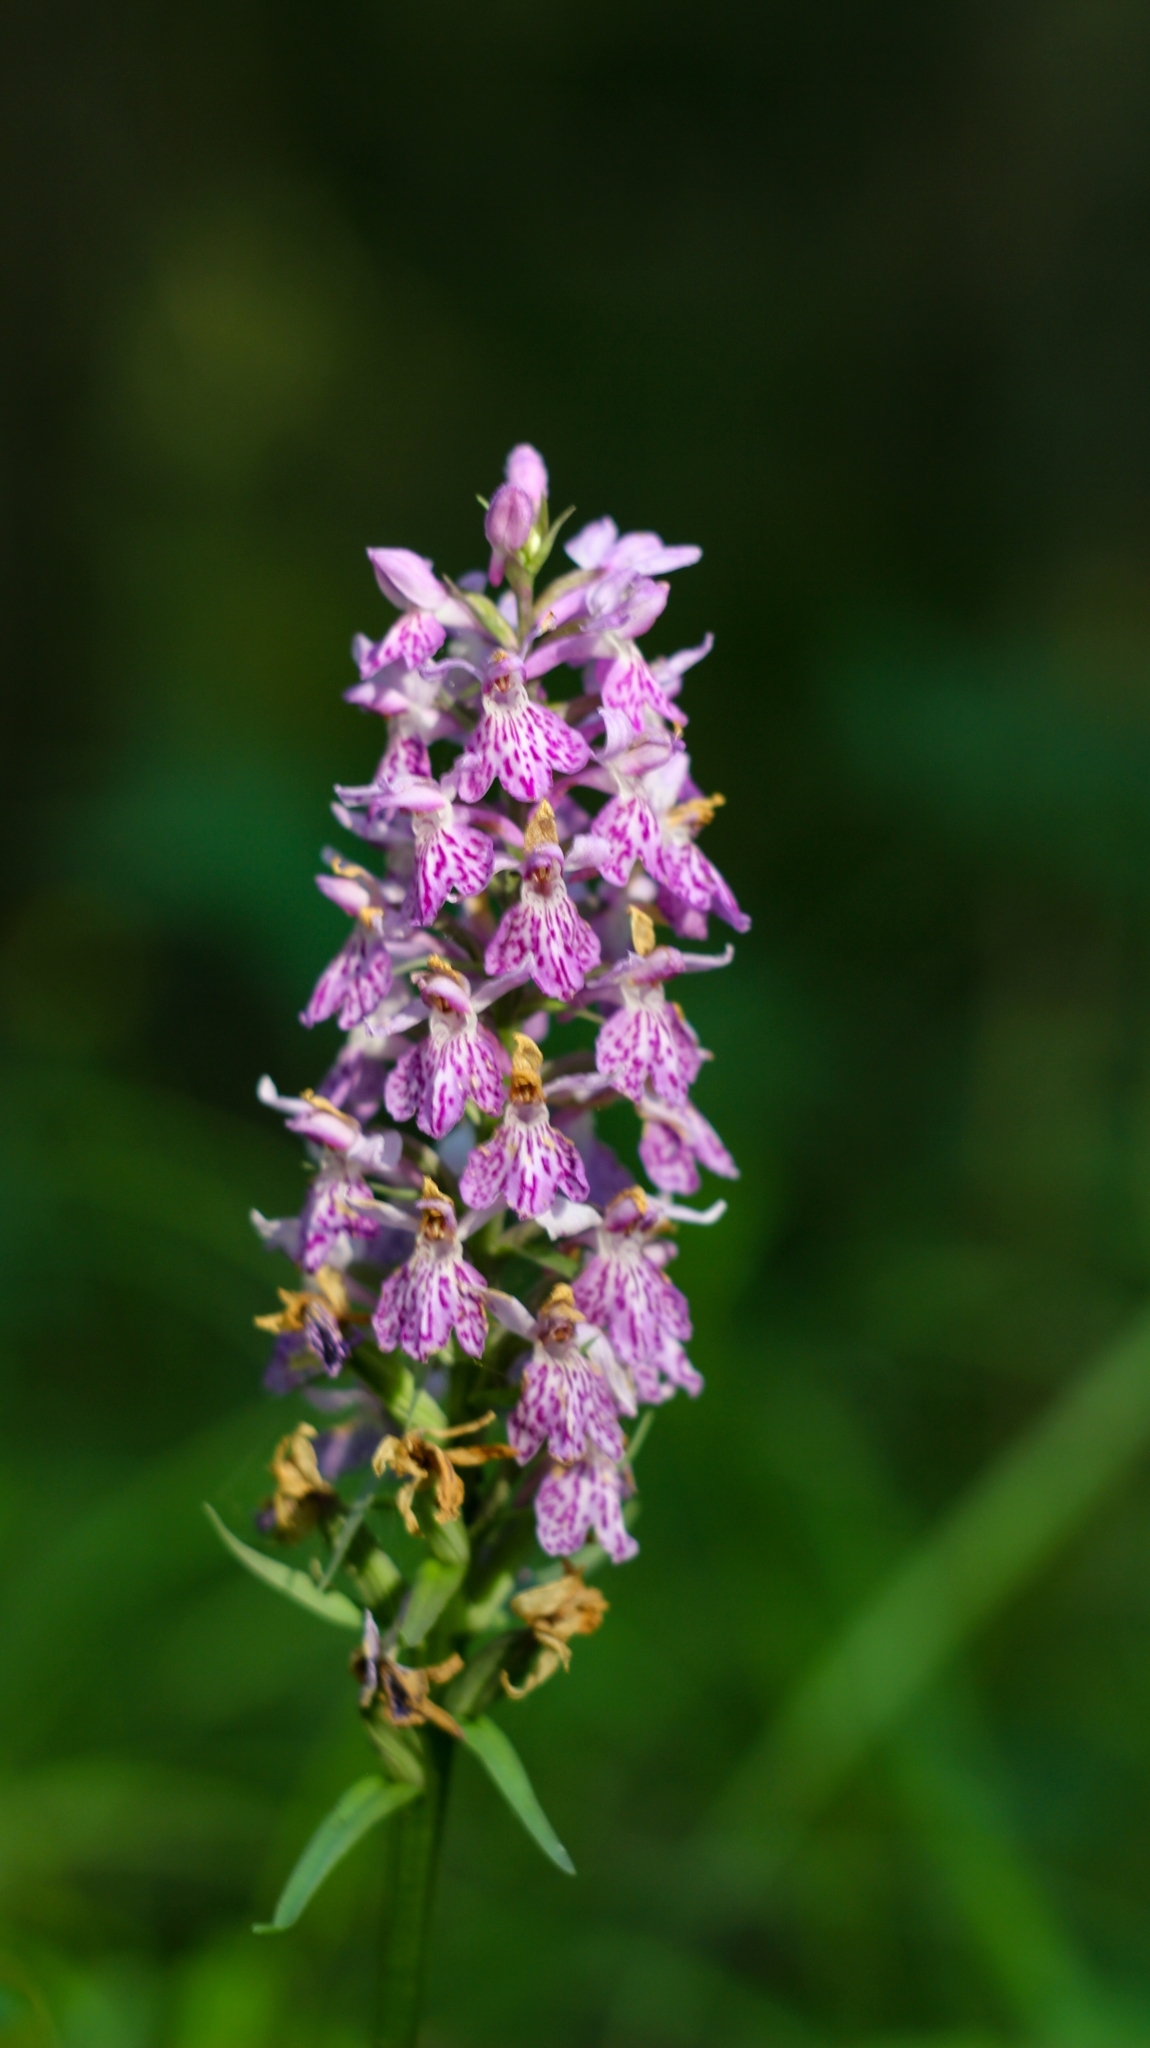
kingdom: Plantae
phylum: Tracheophyta
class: Liliopsida
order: Asparagales
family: Orchidaceae
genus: Dactylorhiza
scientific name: Dactylorhiza maculata
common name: Heath spotted-orchid
